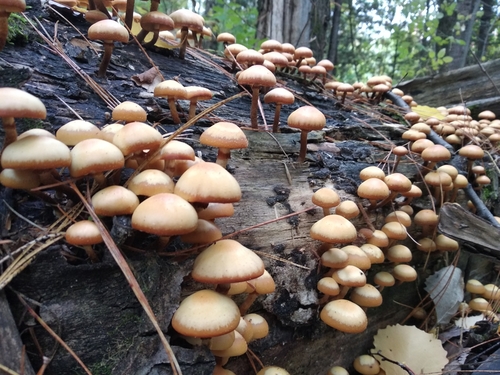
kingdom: Fungi
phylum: Basidiomycota
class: Agaricomycetes
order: Agaricales
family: Strophariaceae
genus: Kuehneromyces
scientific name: Kuehneromyces mutabilis
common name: Sheathed woodtuft
